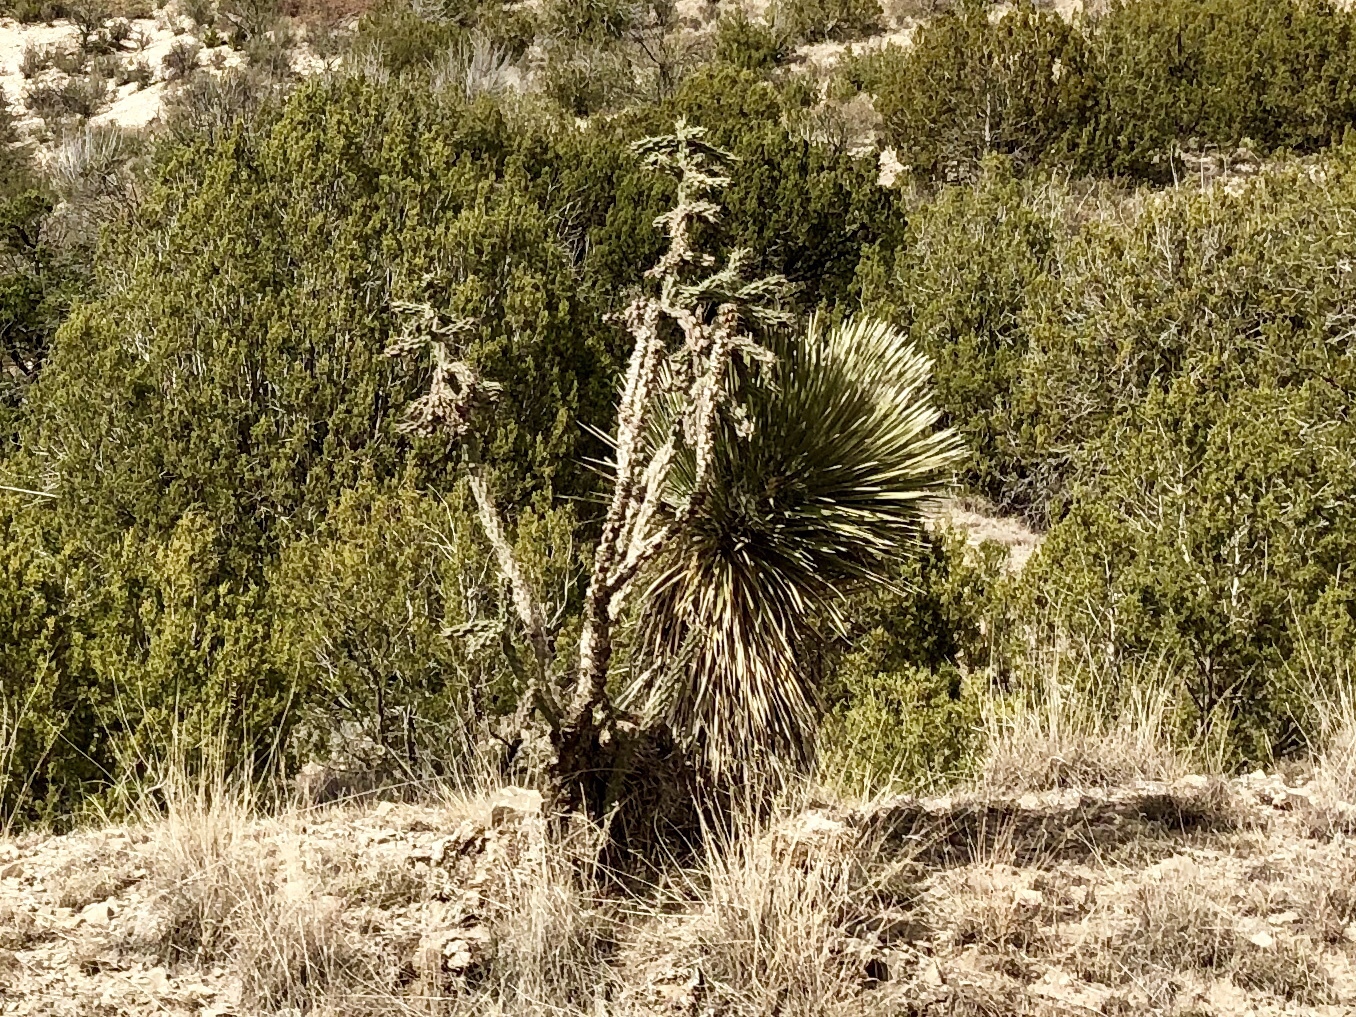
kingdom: Plantae
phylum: Tracheophyta
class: Magnoliopsida
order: Caryophyllales
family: Cactaceae
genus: Cylindropuntia
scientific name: Cylindropuntia imbricata
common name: Candelabrum cactus
